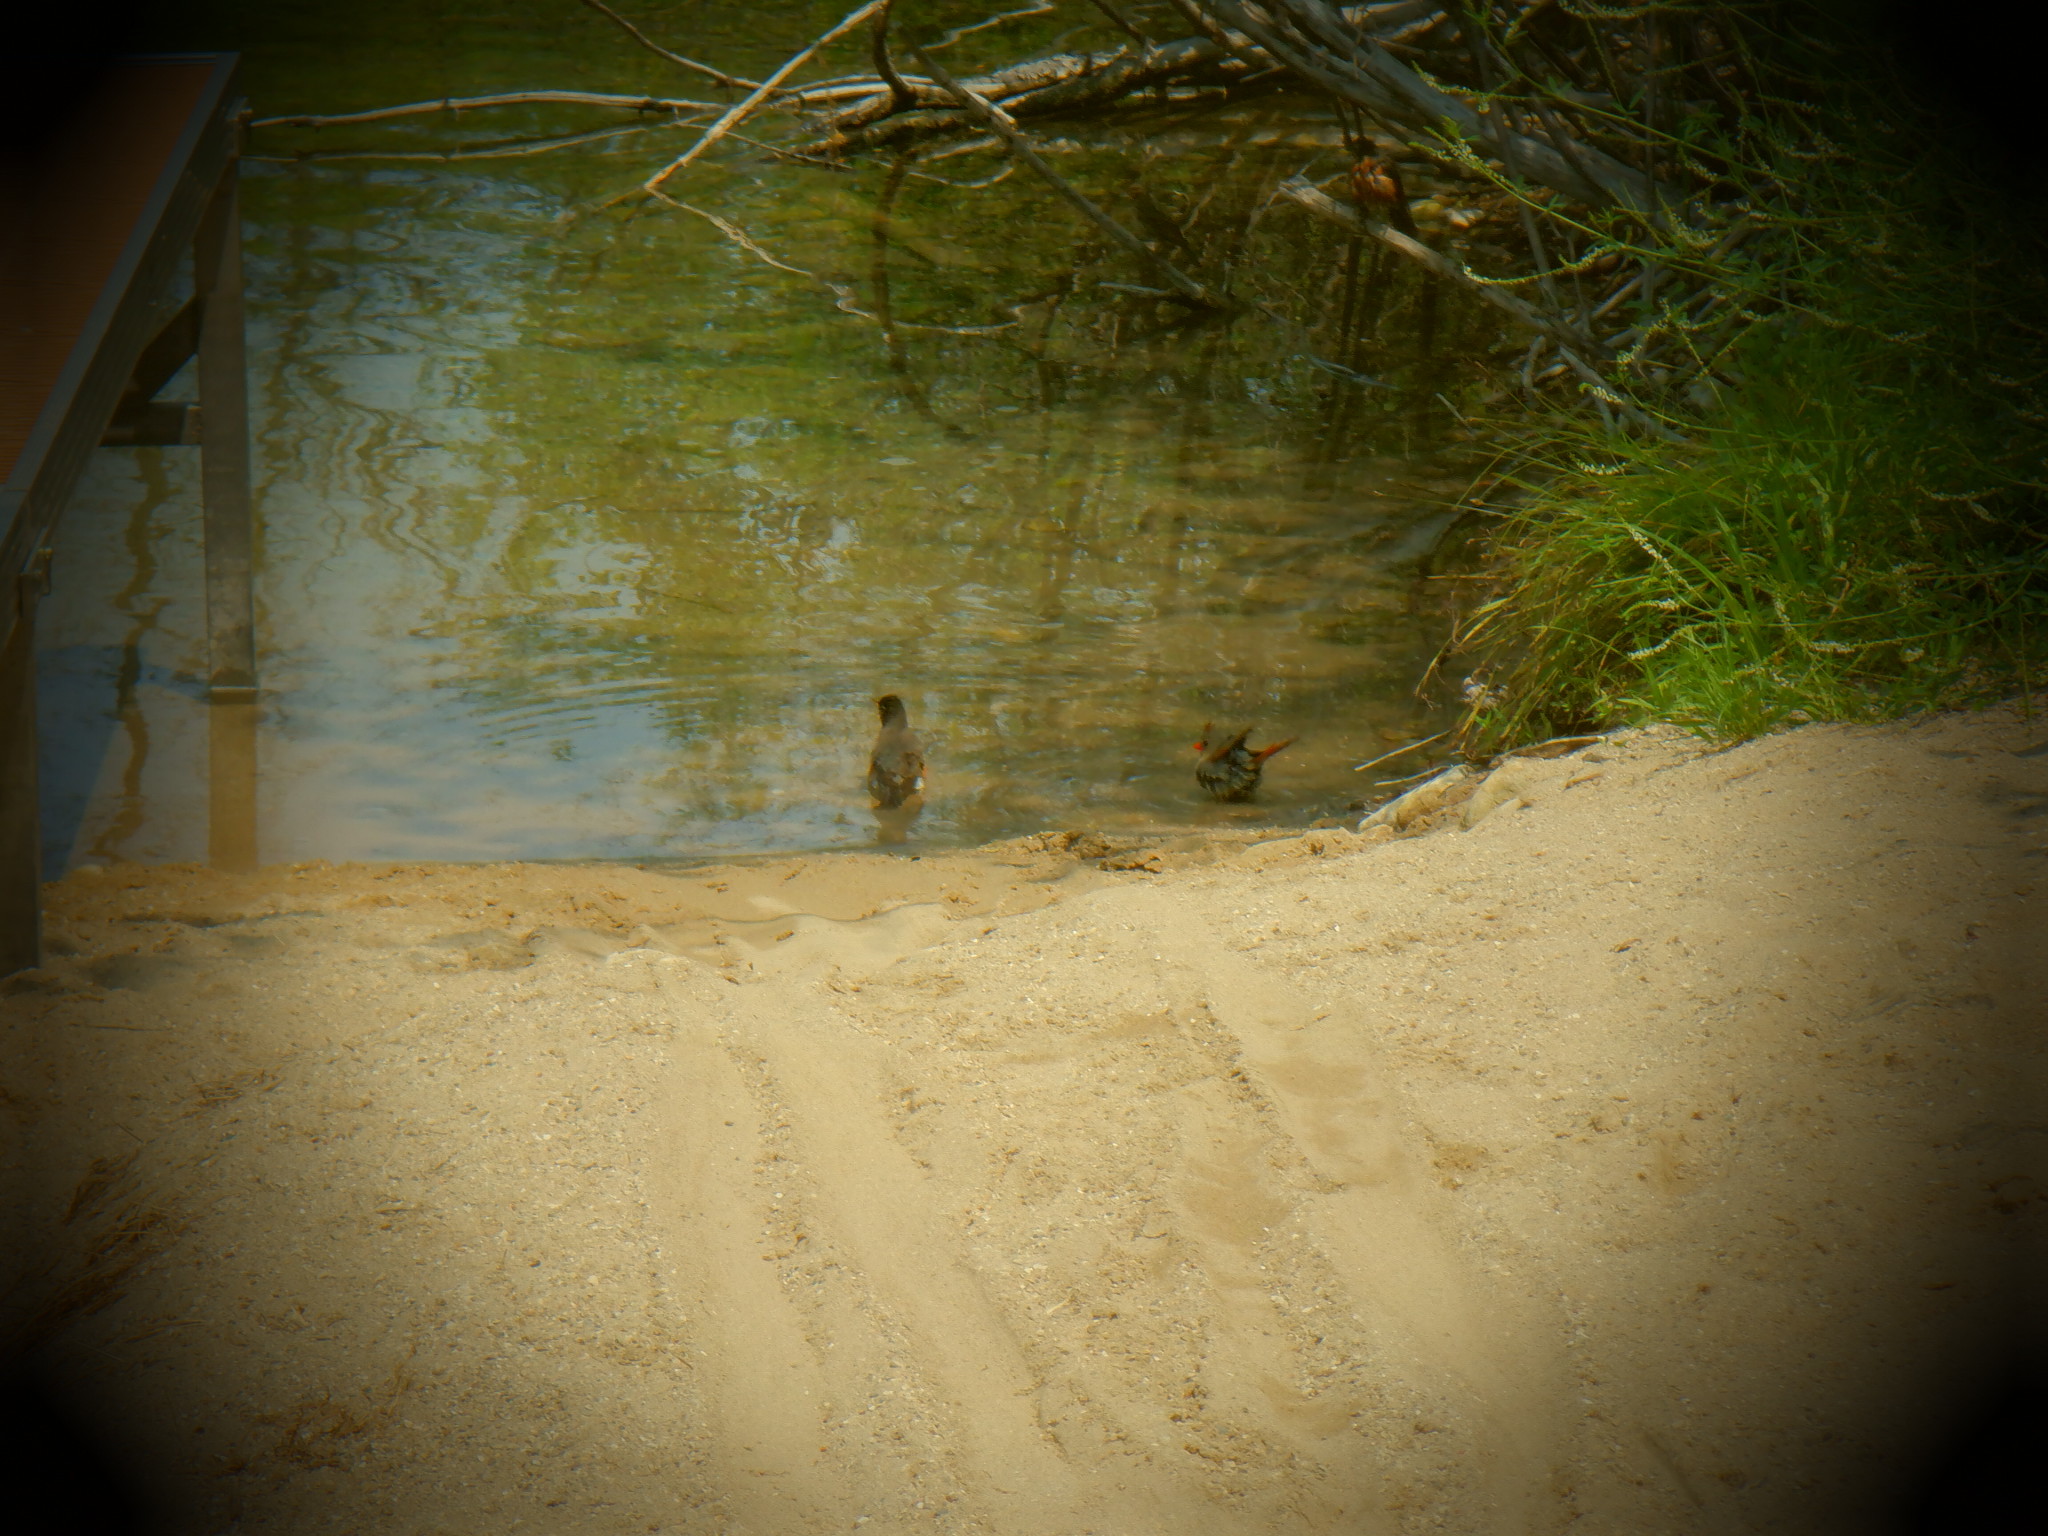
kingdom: Animalia
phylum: Chordata
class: Aves
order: Passeriformes
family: Cardinalidae
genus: Cardinalis
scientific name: Cardinalis cardinalis
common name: Northern cardinal
